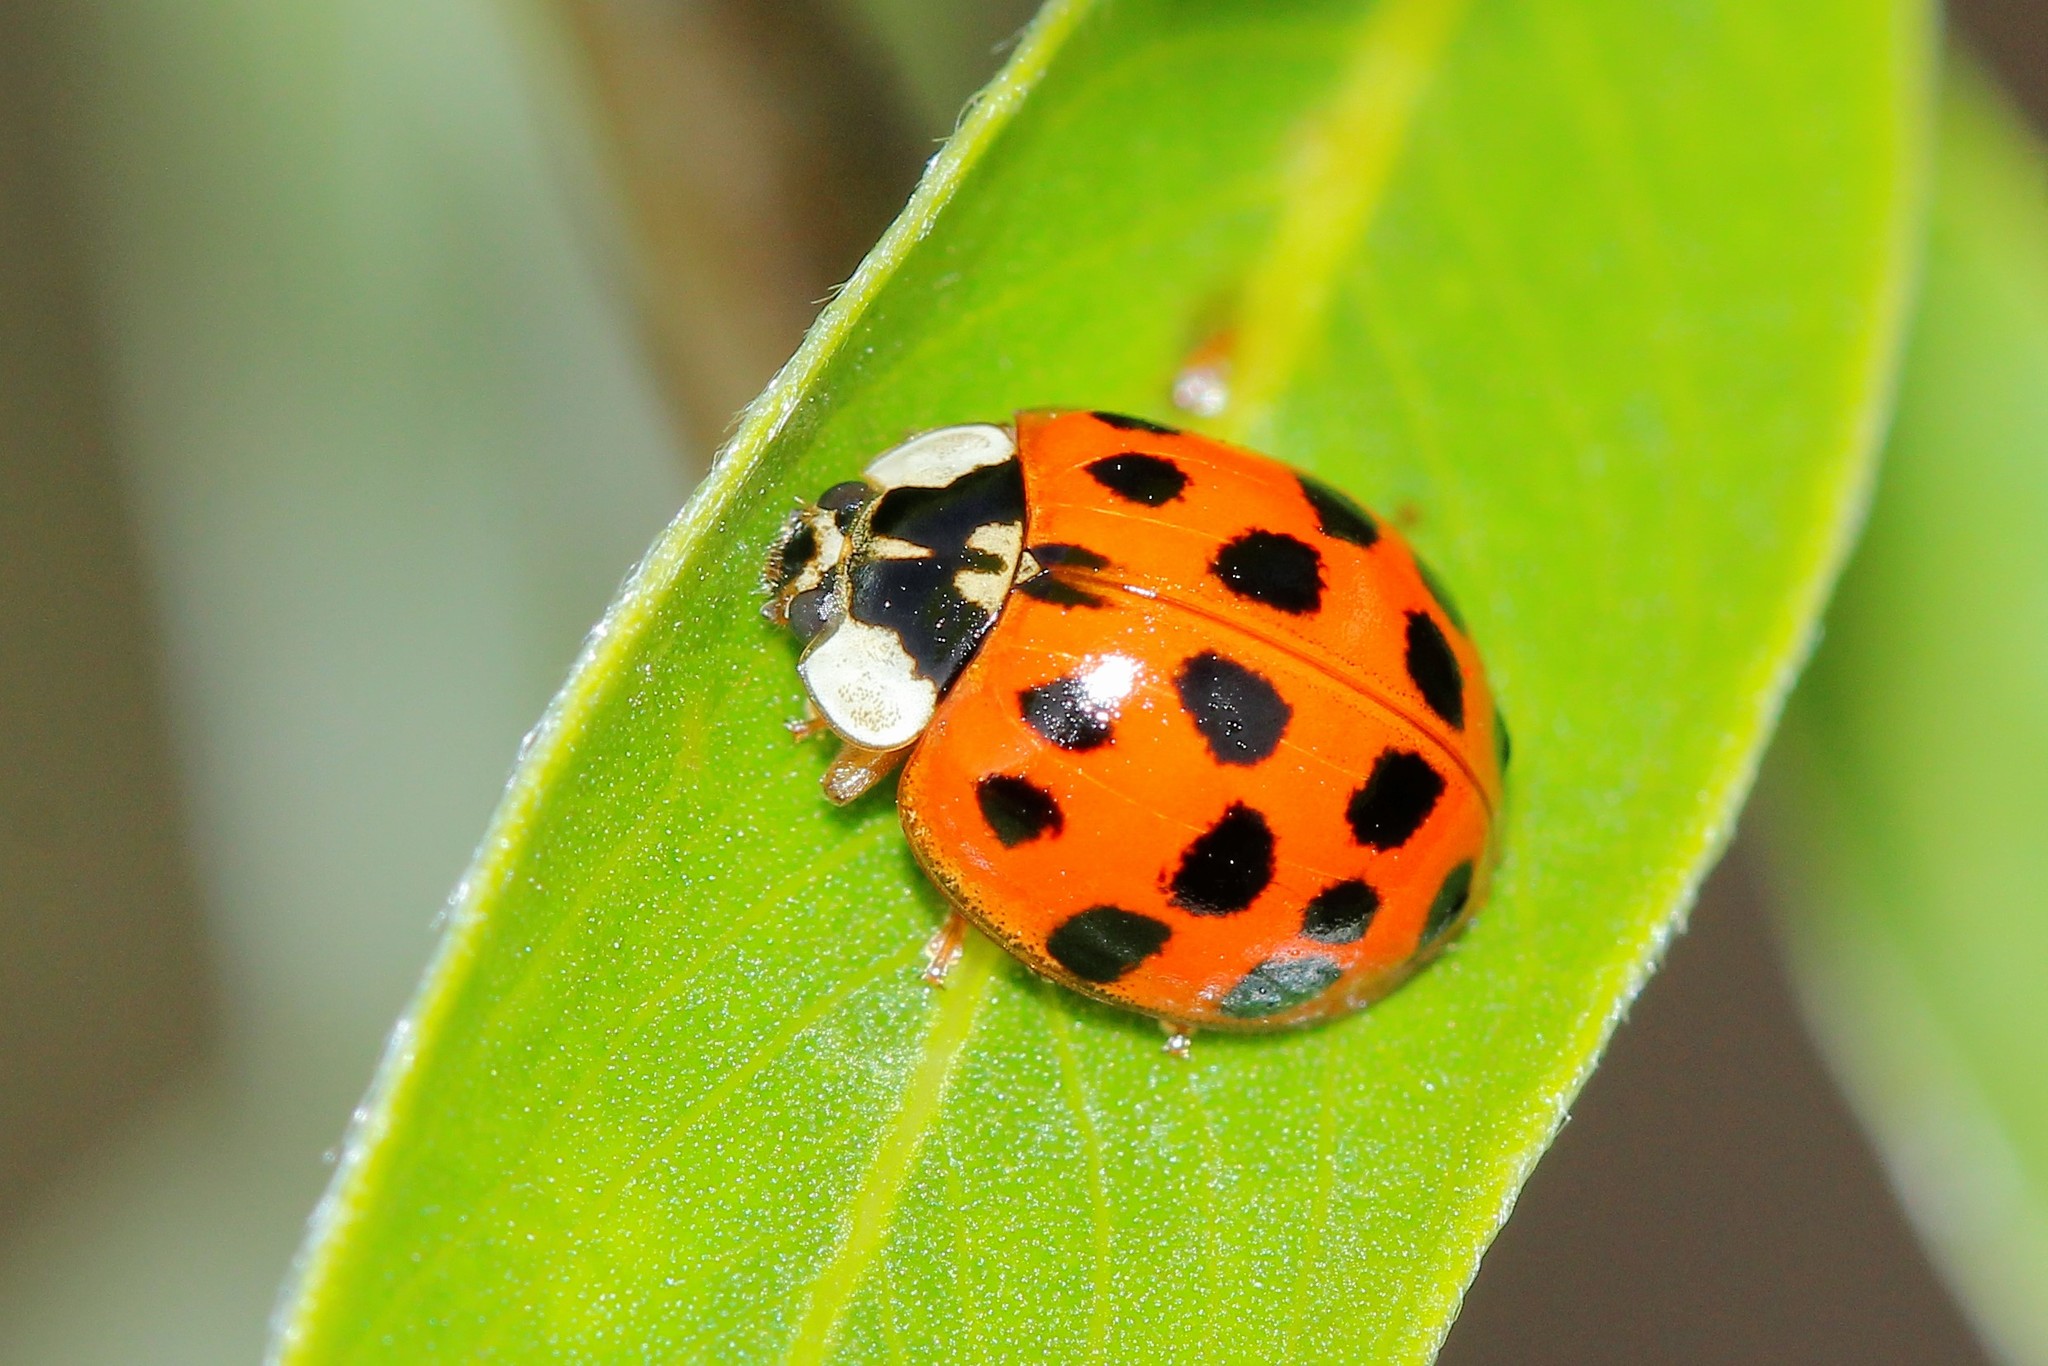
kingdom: Animalia
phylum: Arthropoda
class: Insecta
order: Coleoptera
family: Coccinellidae
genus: Harmonia
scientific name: Harmonia axyridis
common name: Harlequin ladybird
